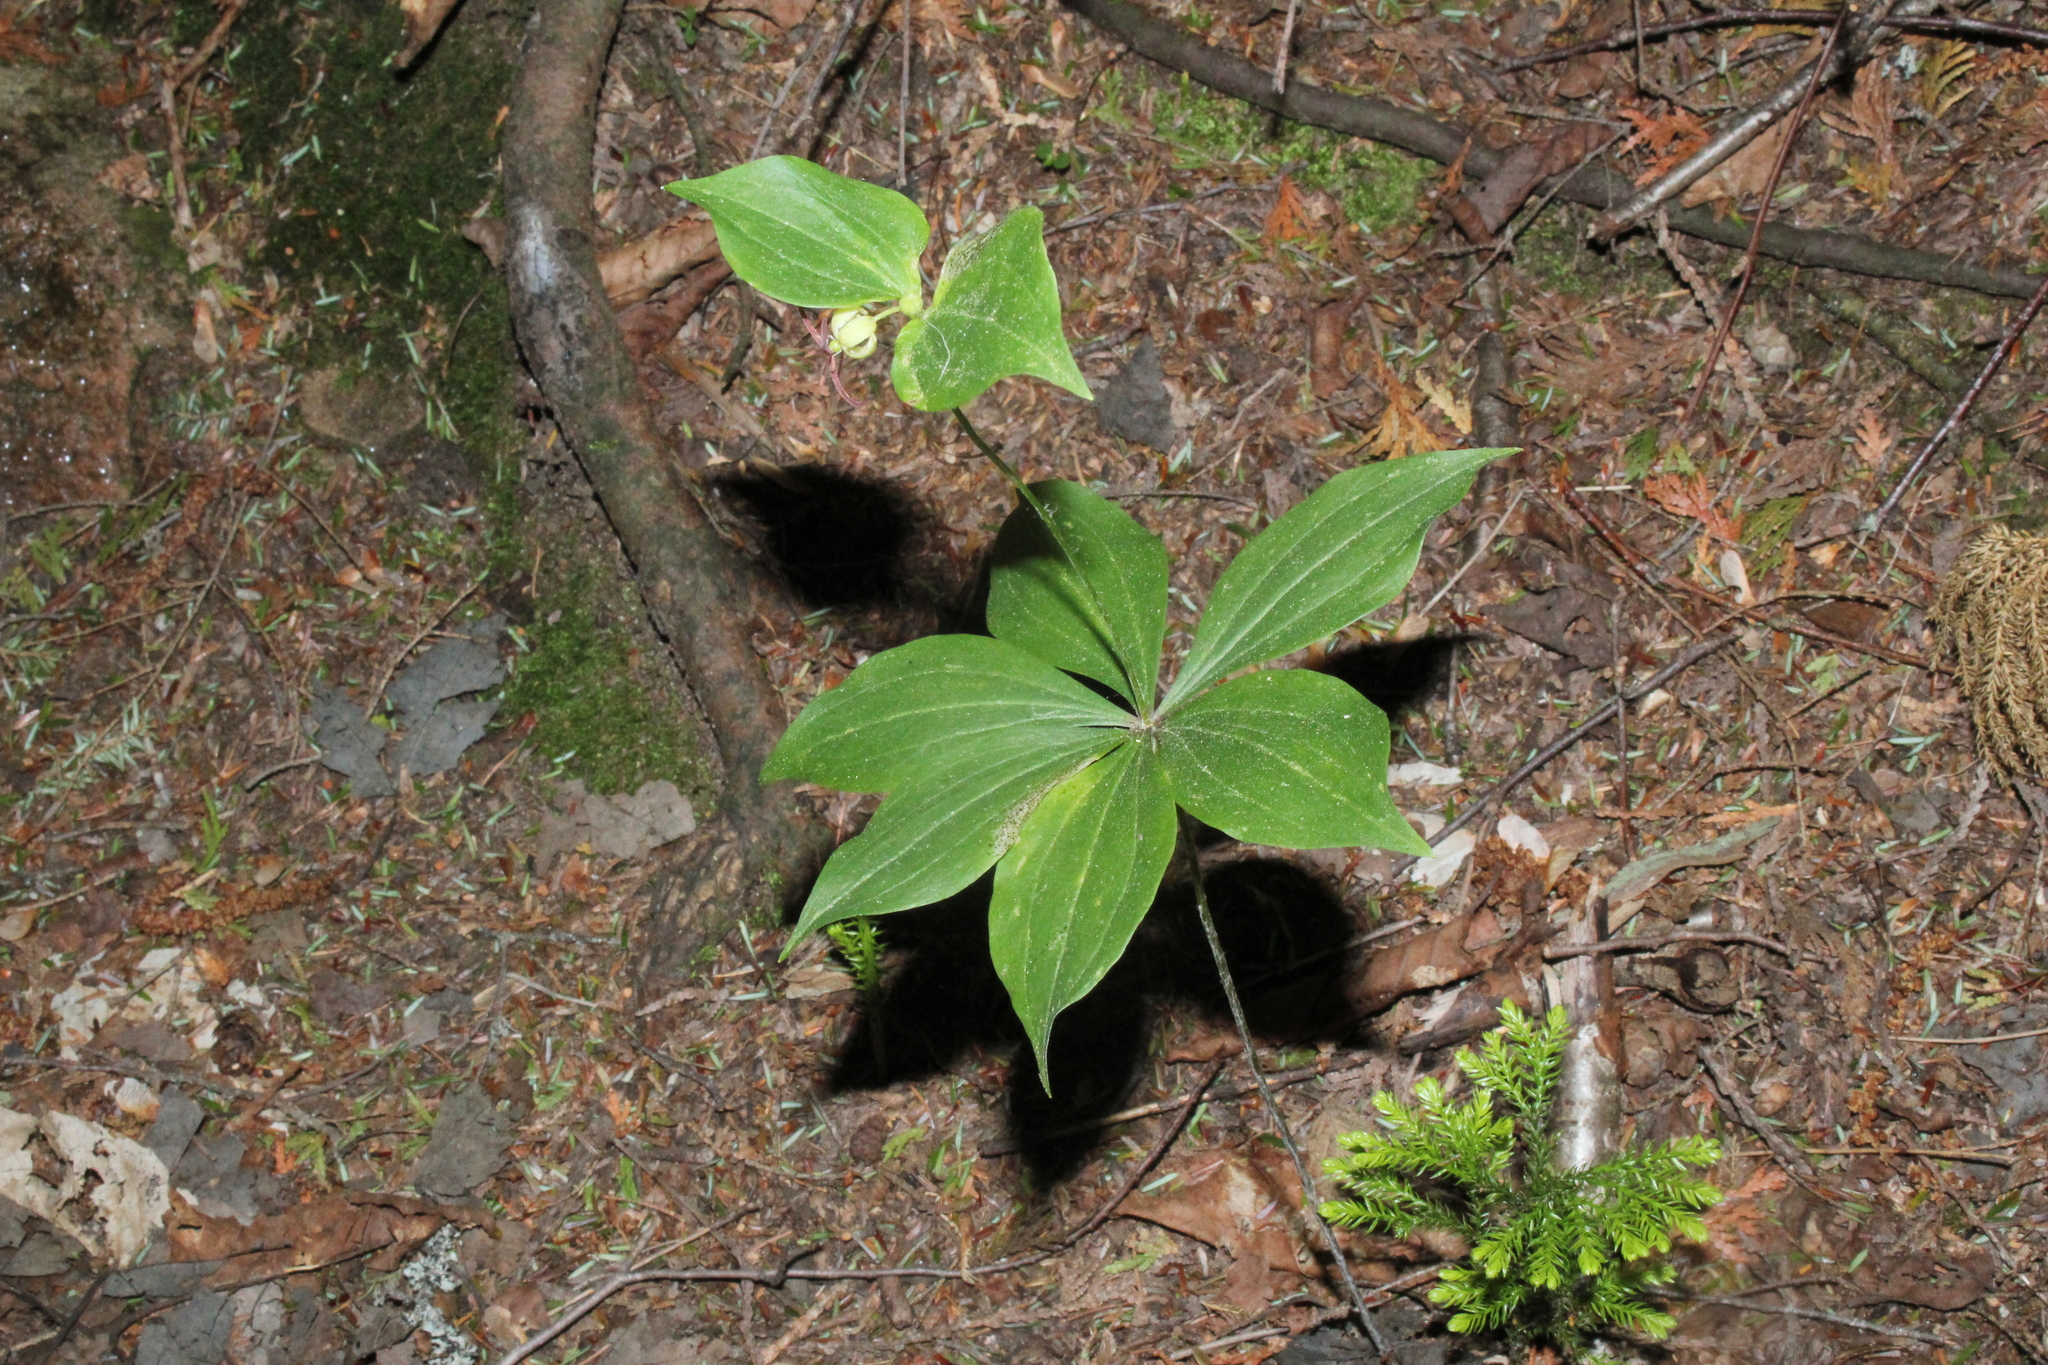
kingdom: Plantae
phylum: Tracheophyta
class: Liliopsida
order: Liliales
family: Liliaceae
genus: Medeola
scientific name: Medeola virginiana
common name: Indian cucumber-root
